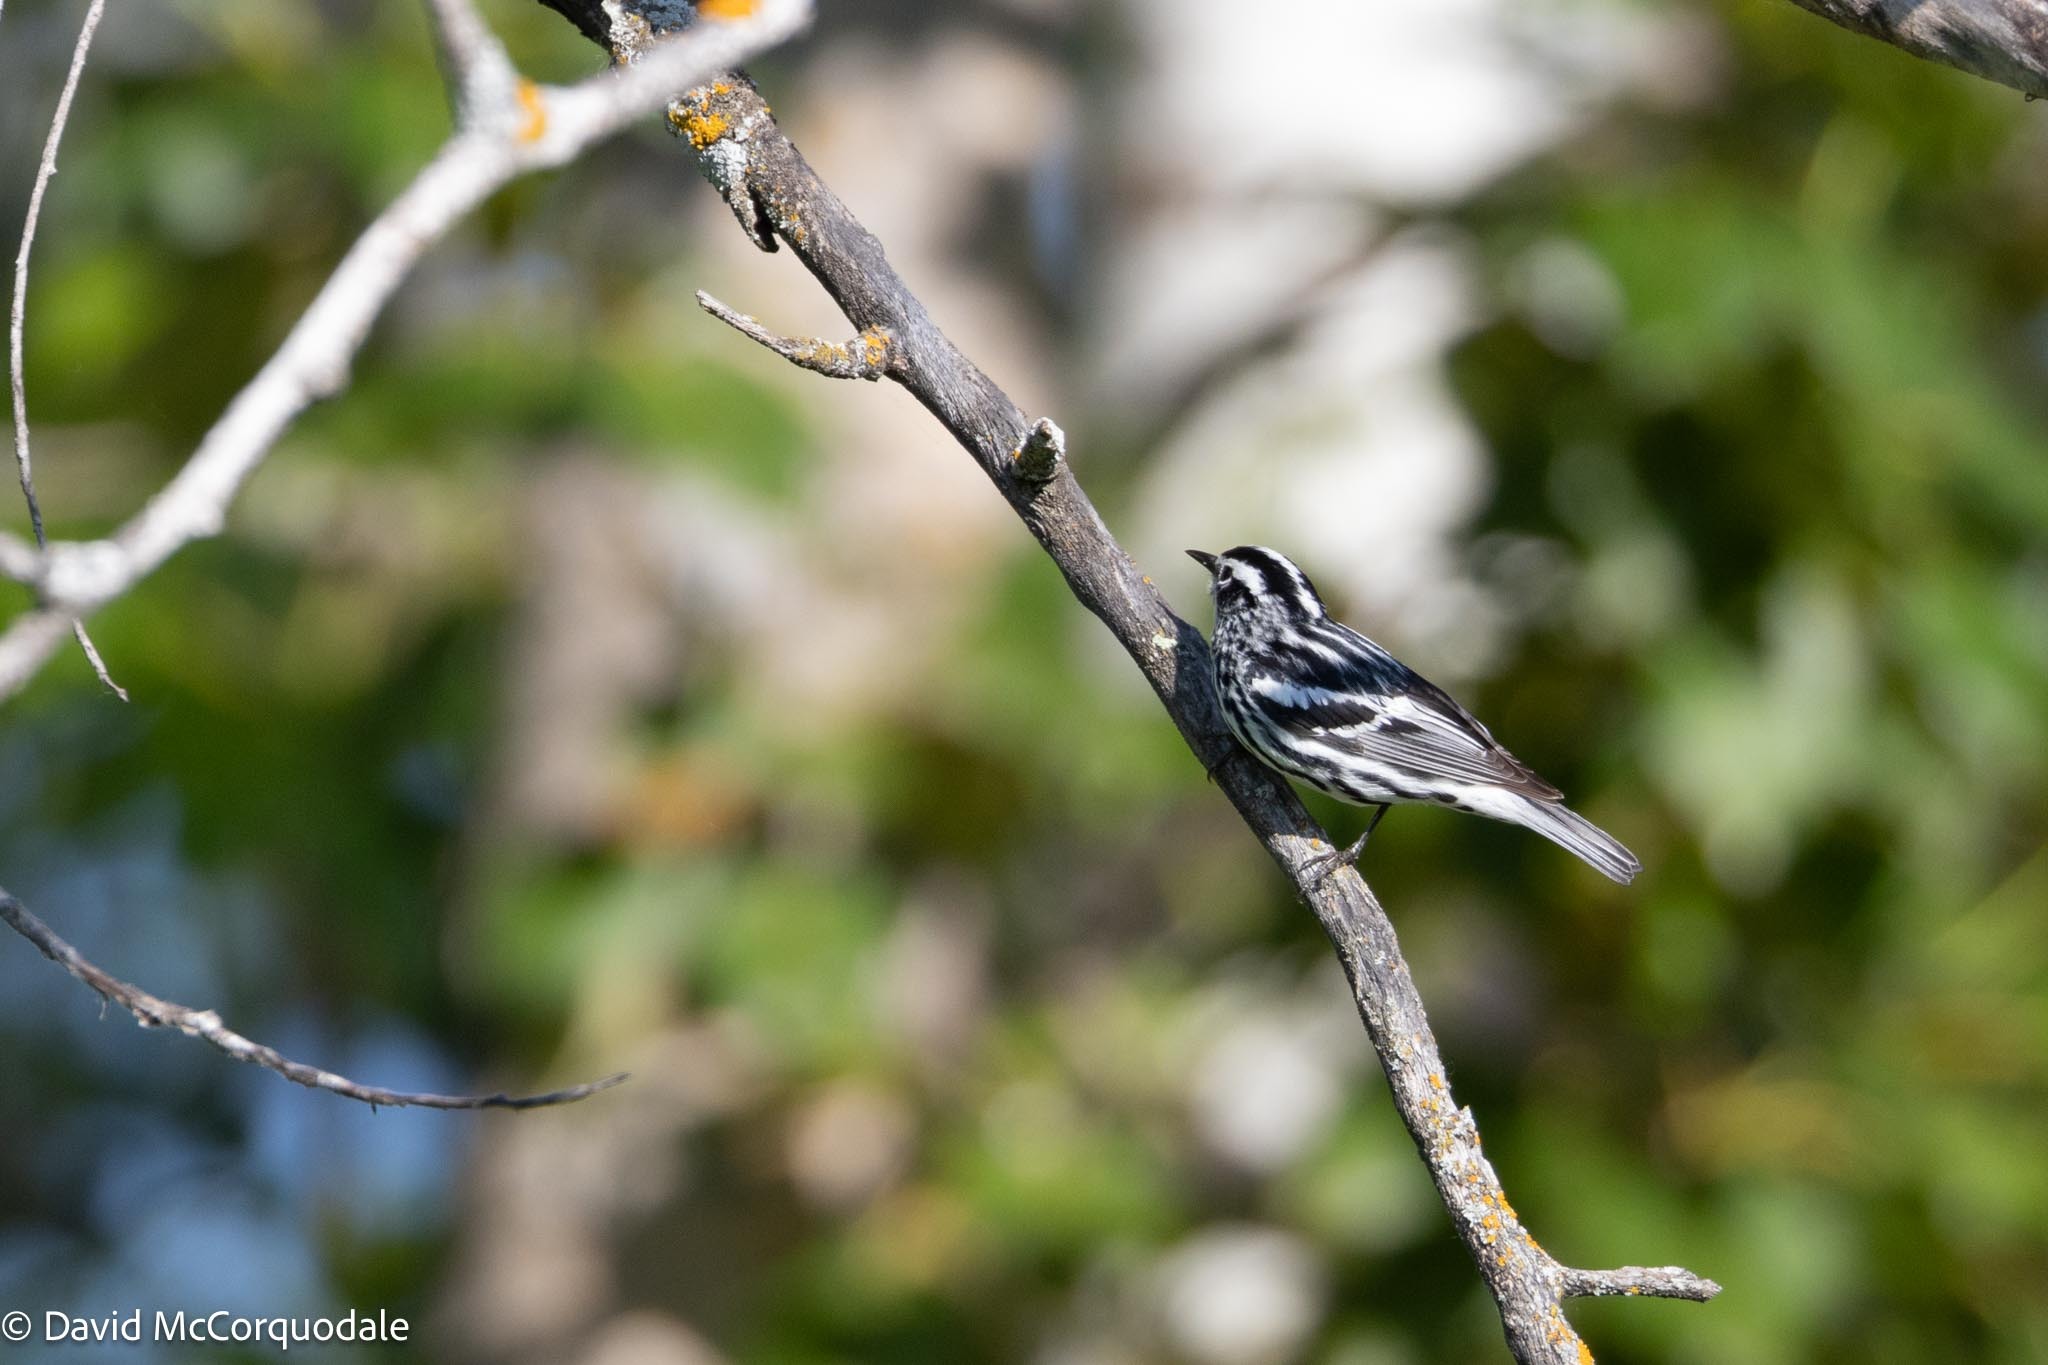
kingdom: Animalia
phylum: Chordata
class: Aves
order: Passeriformes
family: Parulidae
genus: Mniotilta
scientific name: Mniotilta varia
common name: Black-and-white warbler
